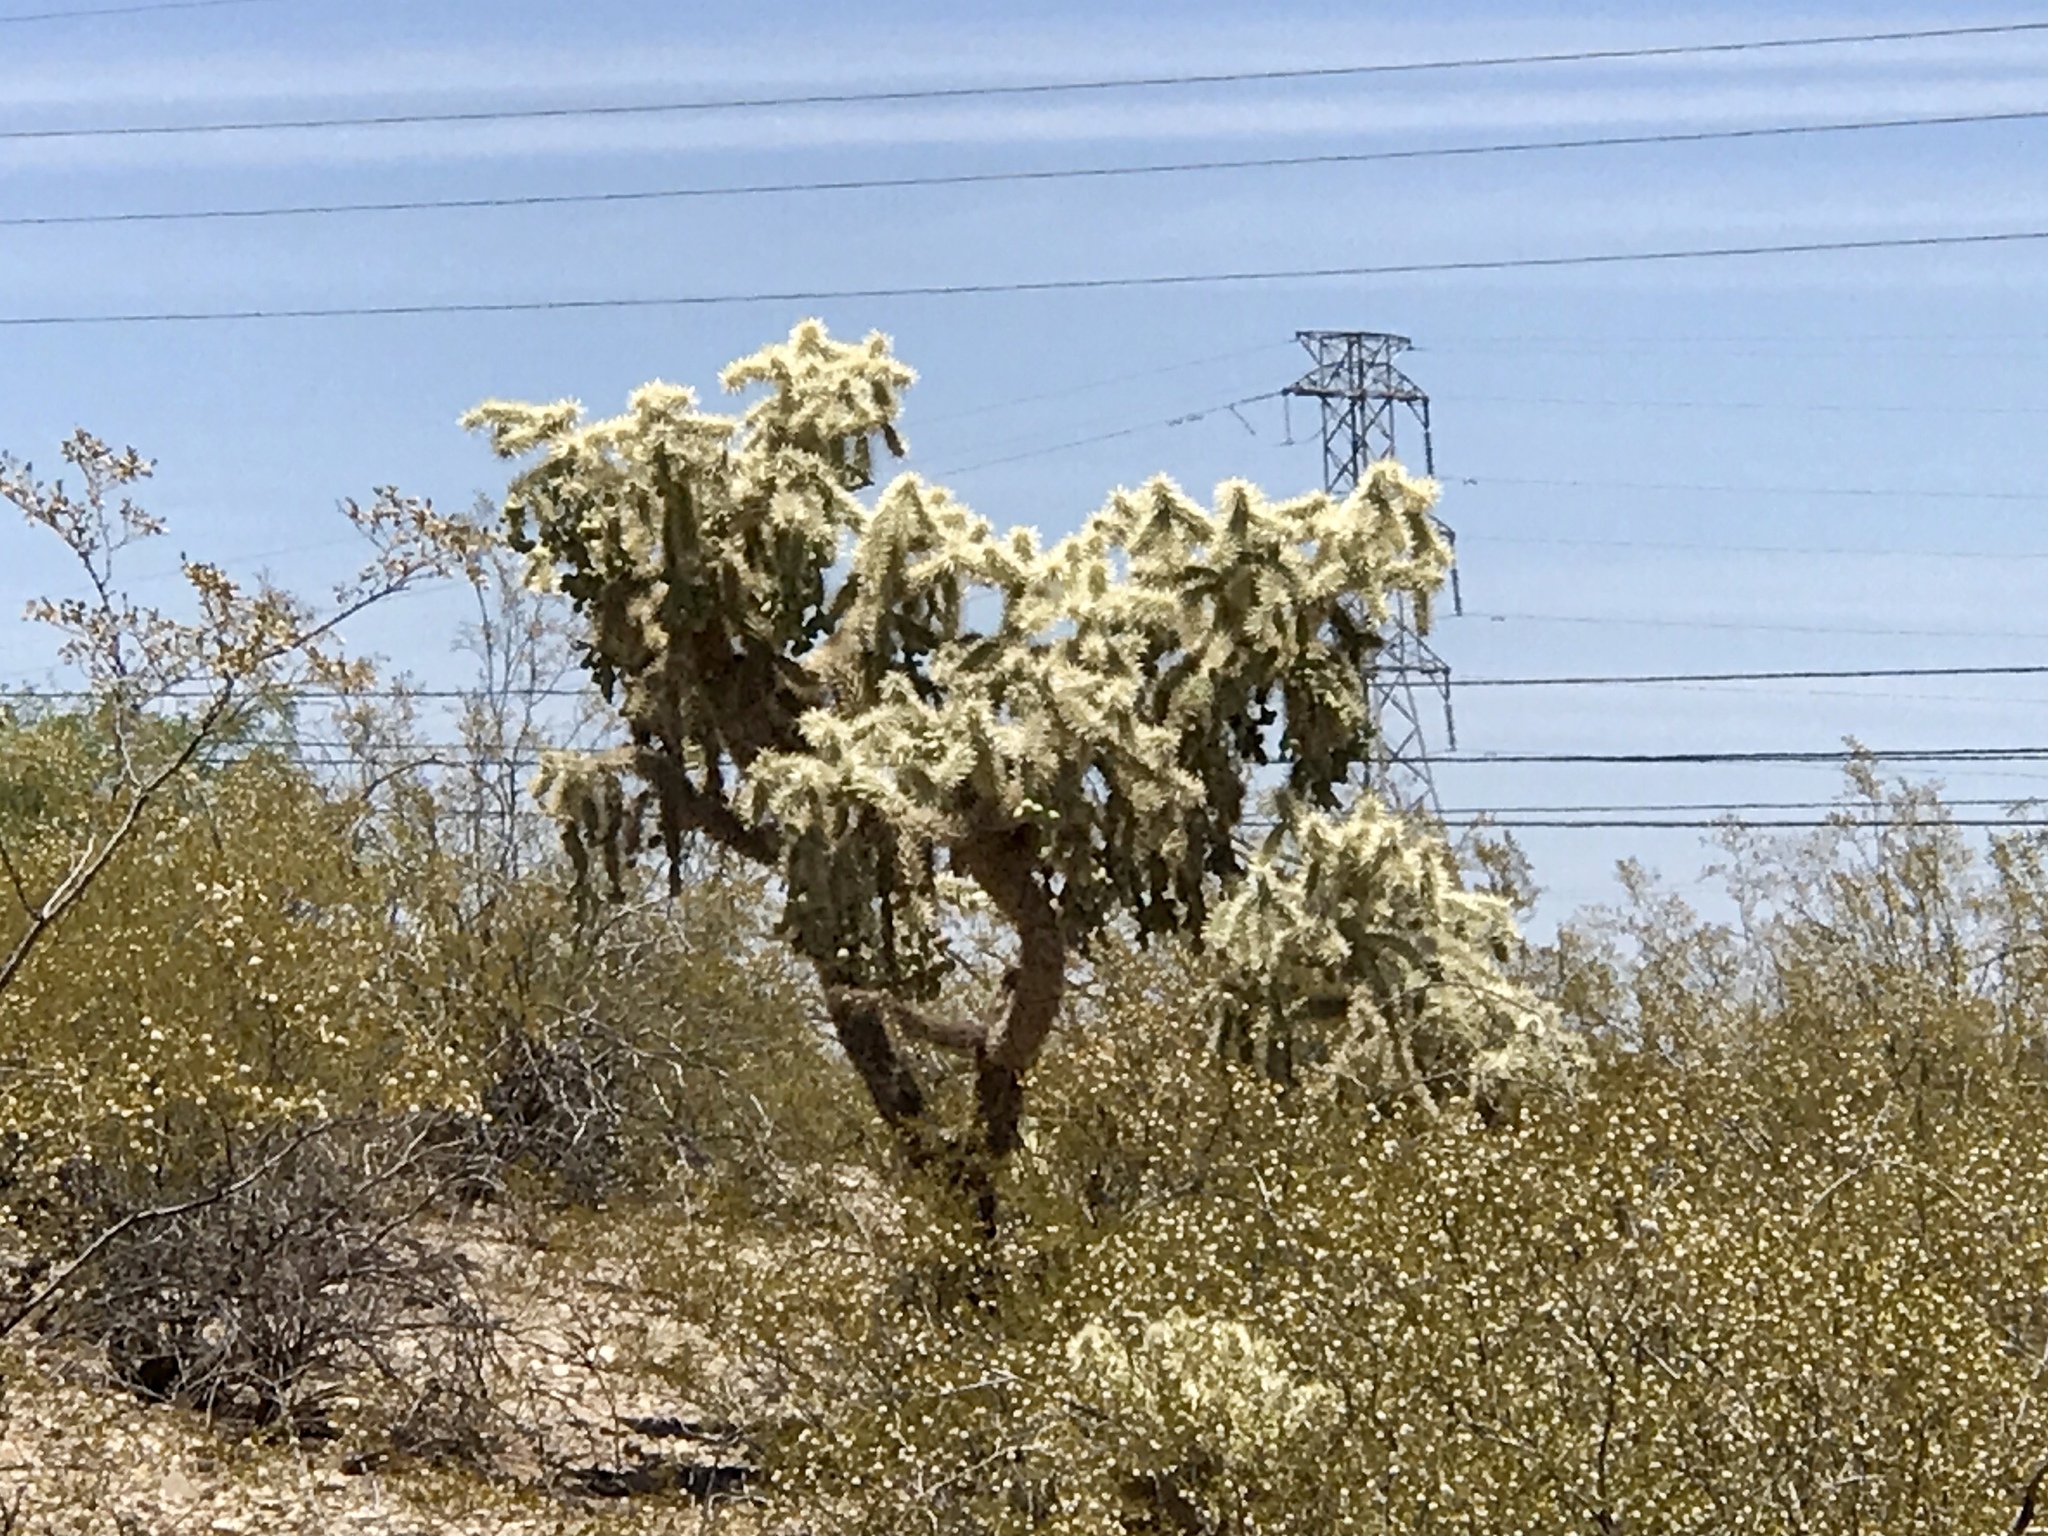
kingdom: Plantae
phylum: Tracheophyta
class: Magnoliopsida
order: Caryophyllales
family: Cactaceae
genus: Cylindropuntia
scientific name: Cylindropuntia fulgida
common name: Jumping cholla
